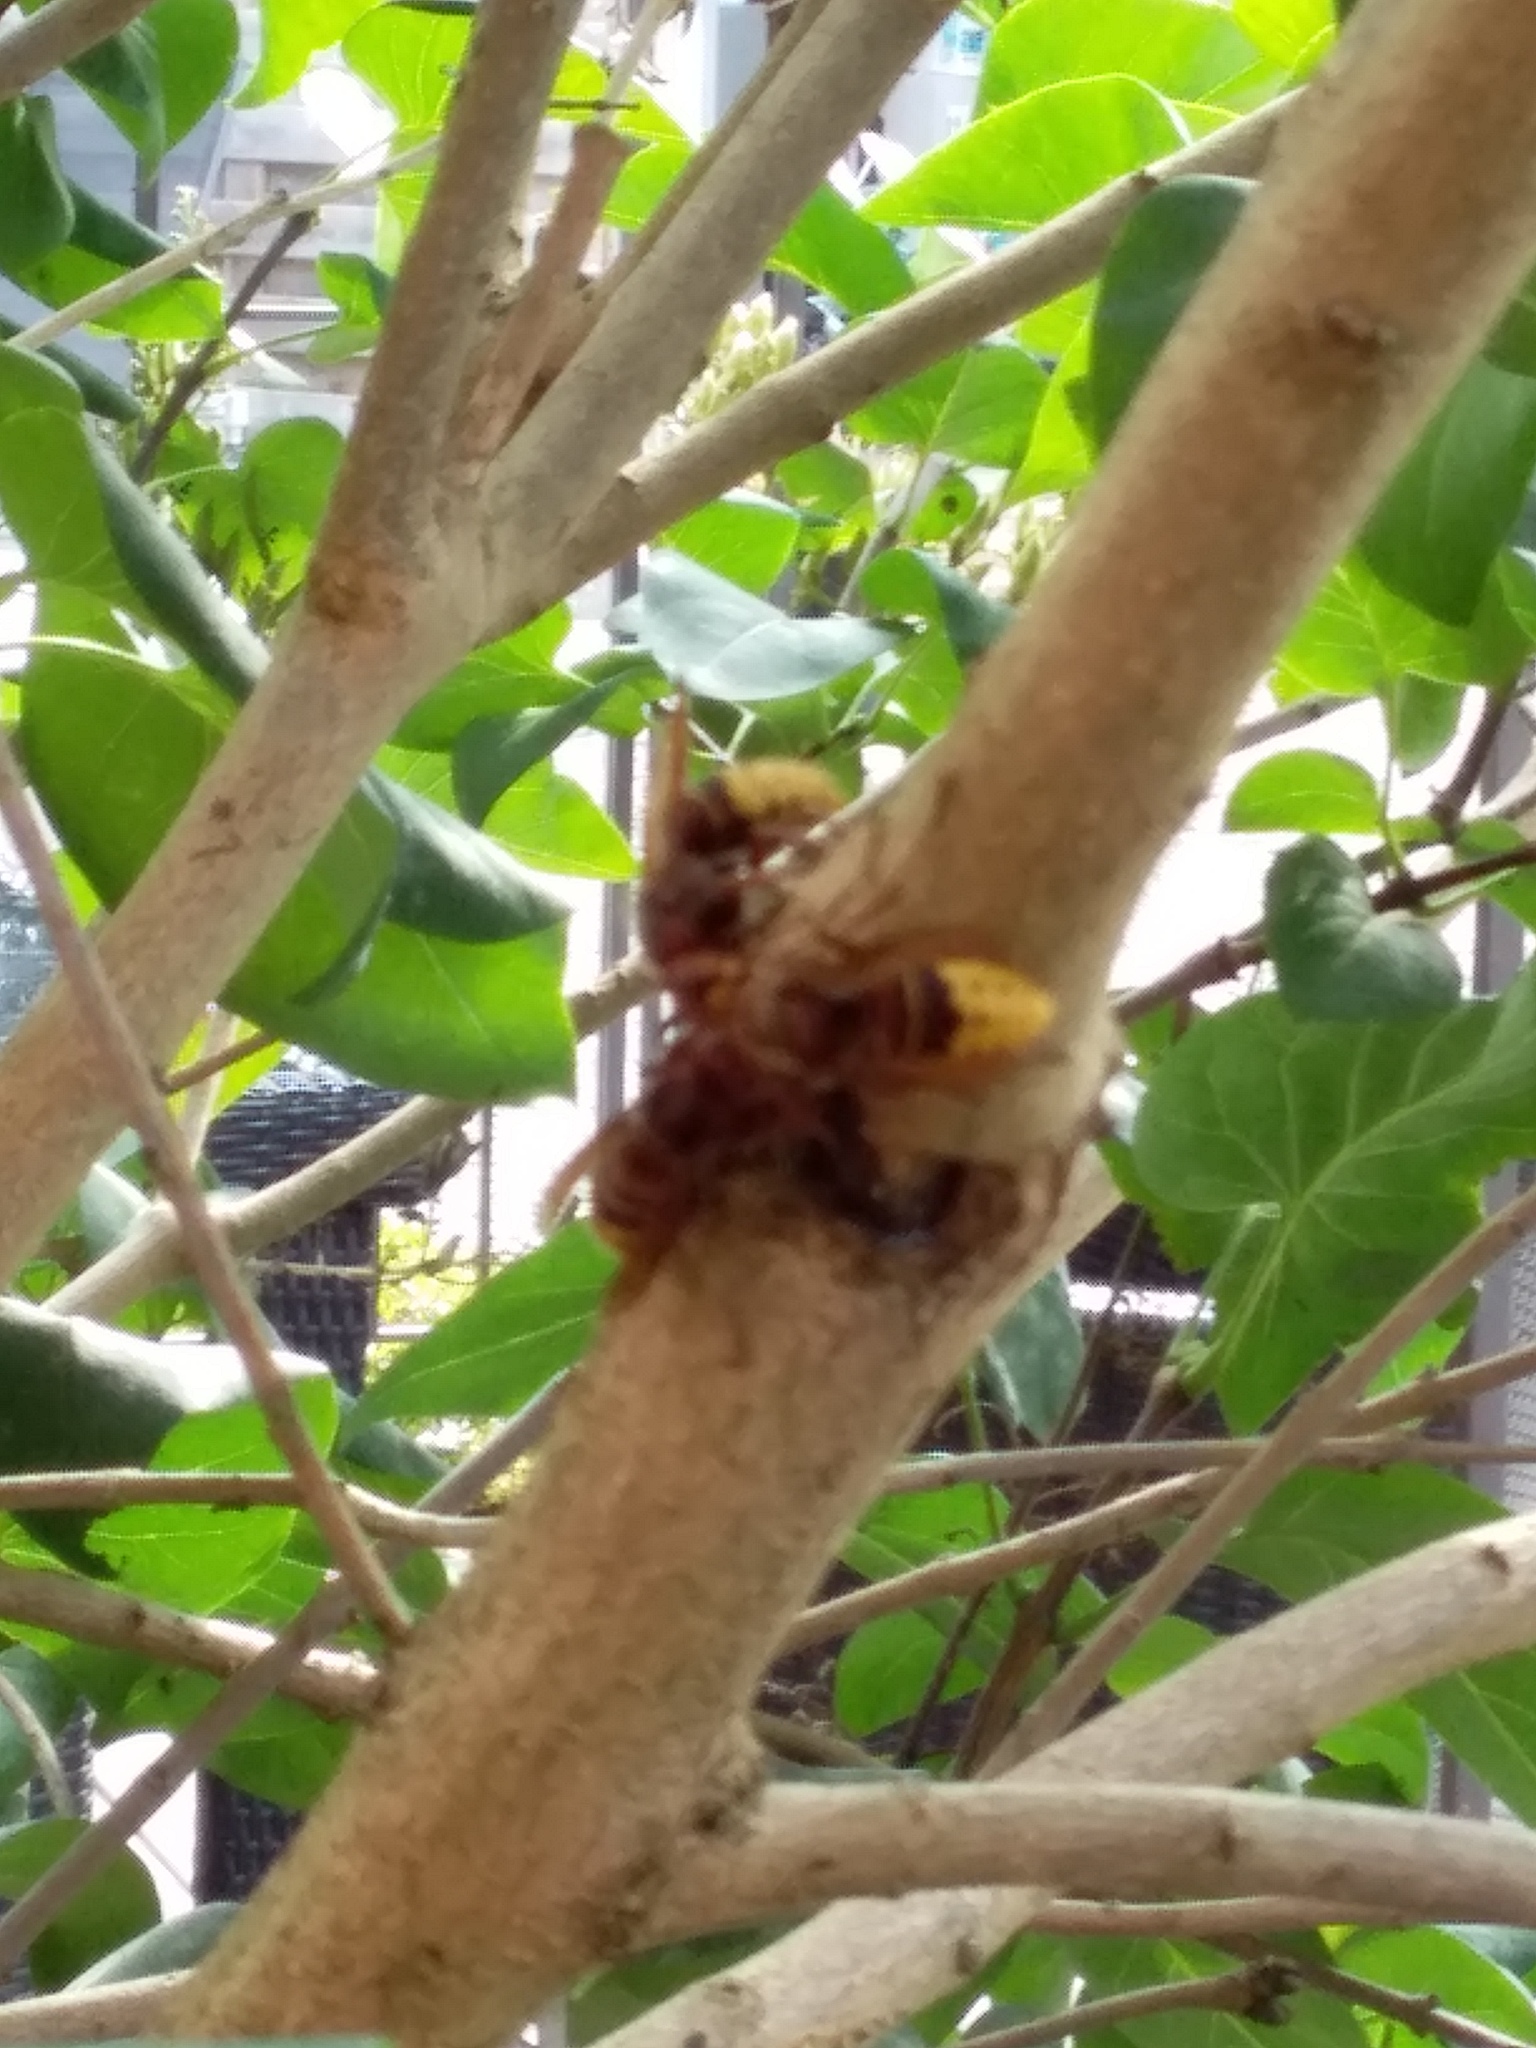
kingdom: Animalia
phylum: Arthropoda
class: Insecta
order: Hymenoptera
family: Vespidae
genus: Vespa
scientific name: Vespa crabro
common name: Hornet
